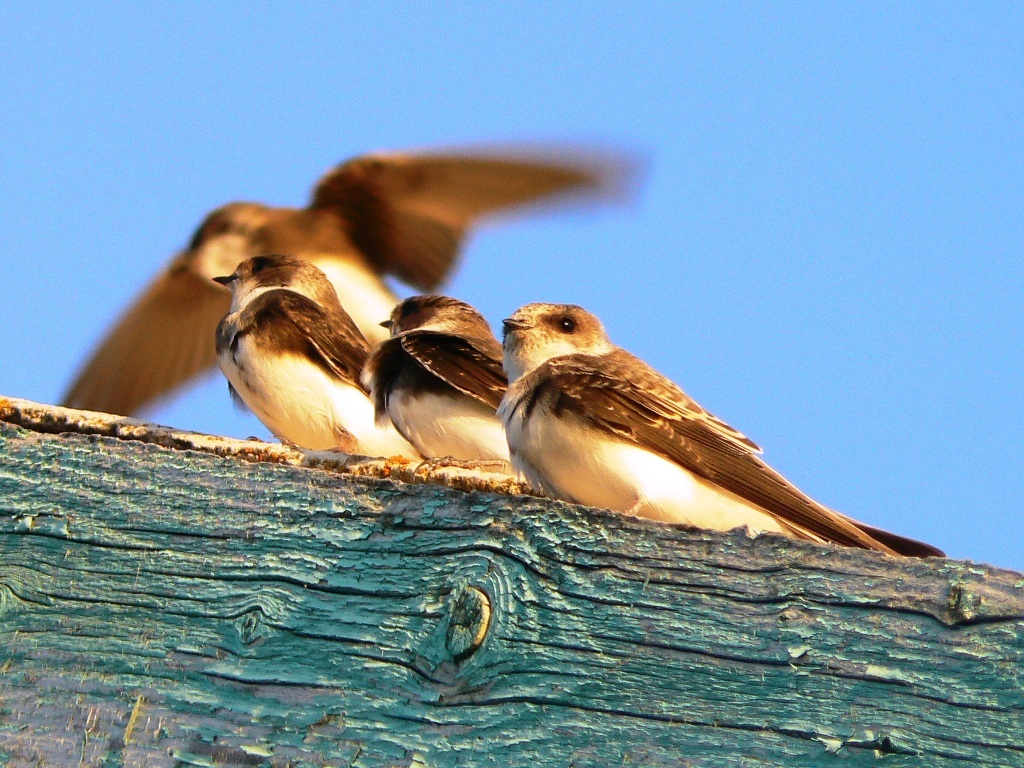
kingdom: Animalia
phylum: Chordata
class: Aves
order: Passeriformes
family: Hirundinidae
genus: Riparia
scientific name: Riparia riparia
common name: Sand martin
